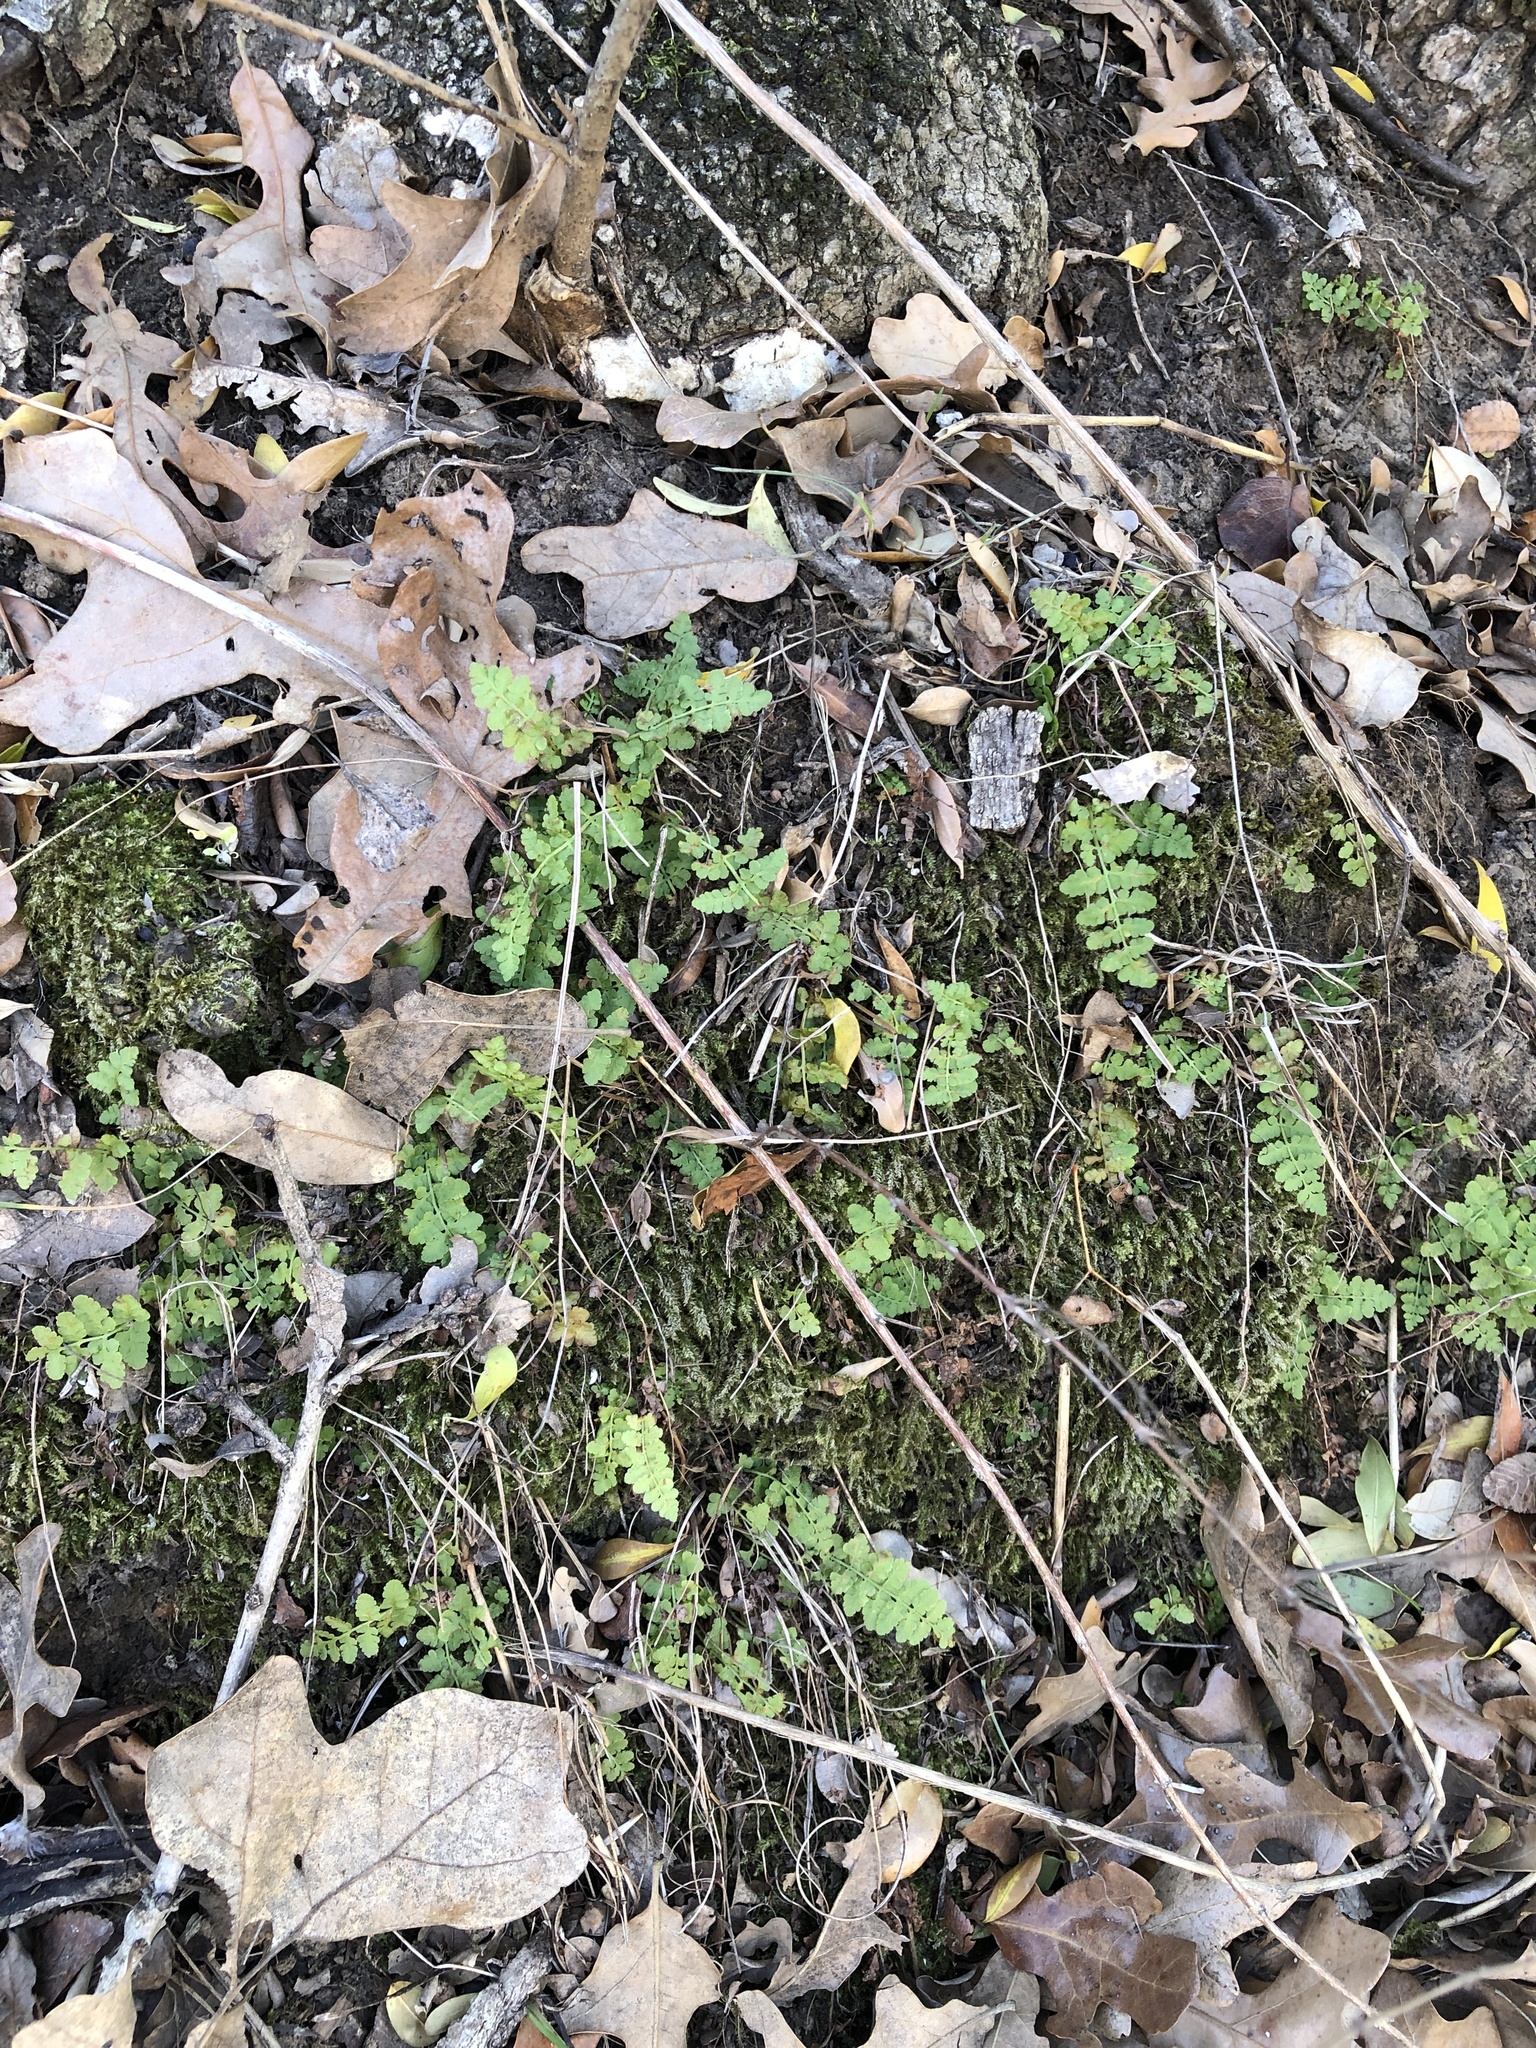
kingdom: Plantae
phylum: Tracheophyta
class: Polypodiopsida
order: Polypodiales
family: Woodsiaceae
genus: Physematium
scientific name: Physematium obtusum
